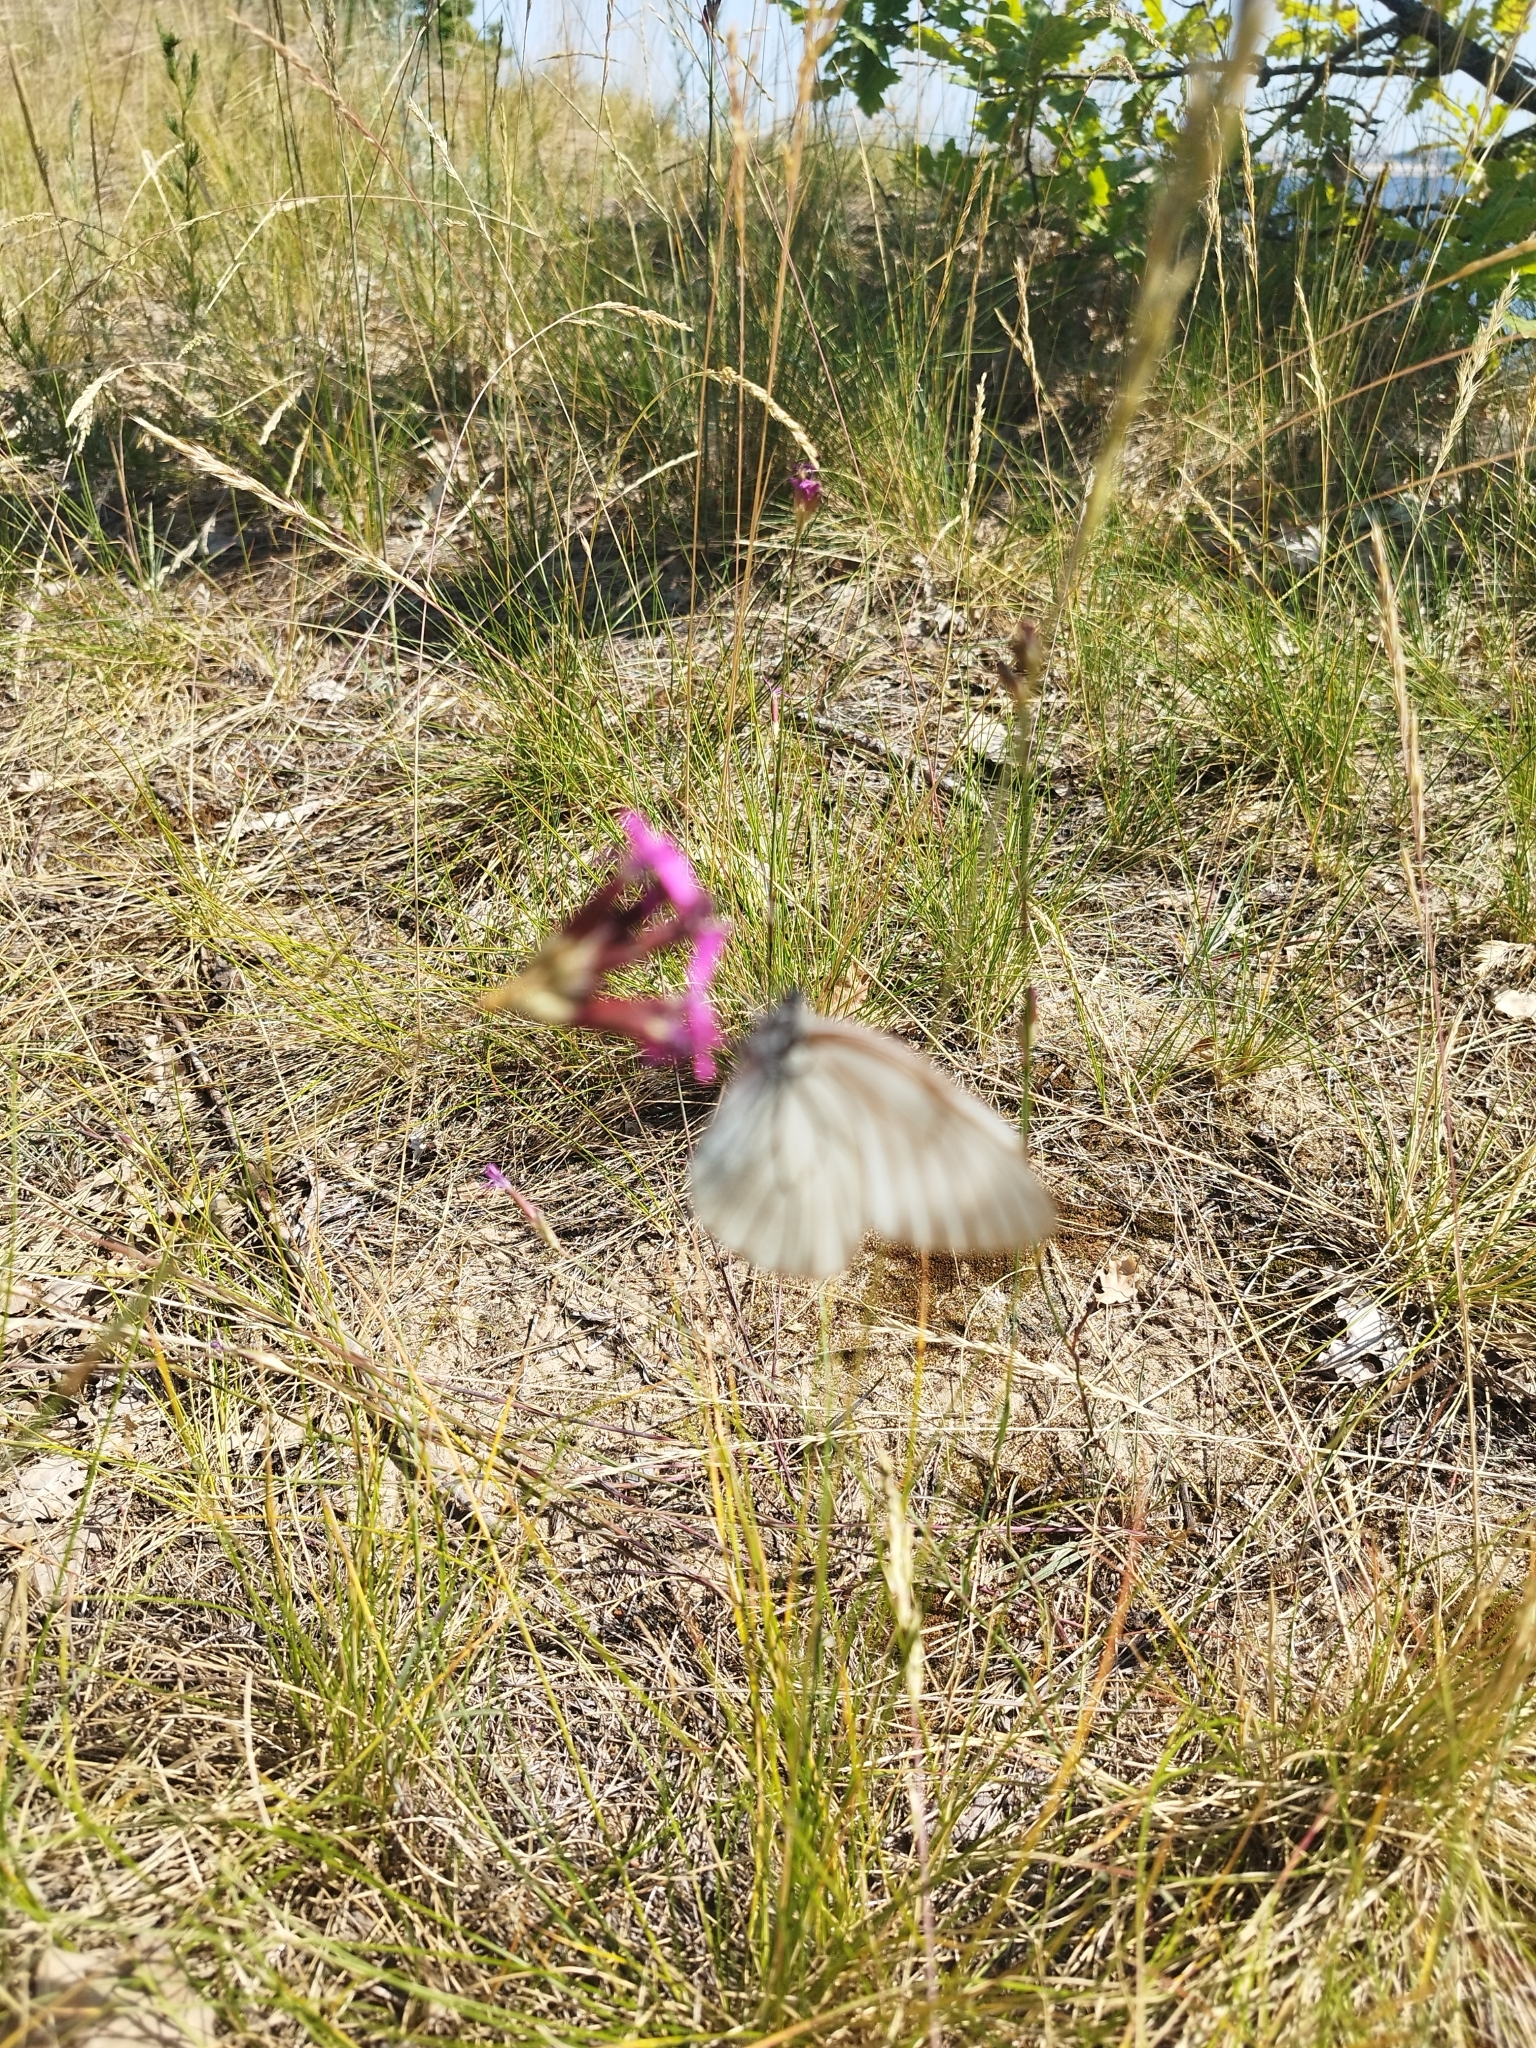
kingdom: Animalia
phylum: Arthropoda
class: Insecta
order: Lepidoptera
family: Pieridae
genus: Aporia
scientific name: Aporia crataegi
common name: Black-veined white
